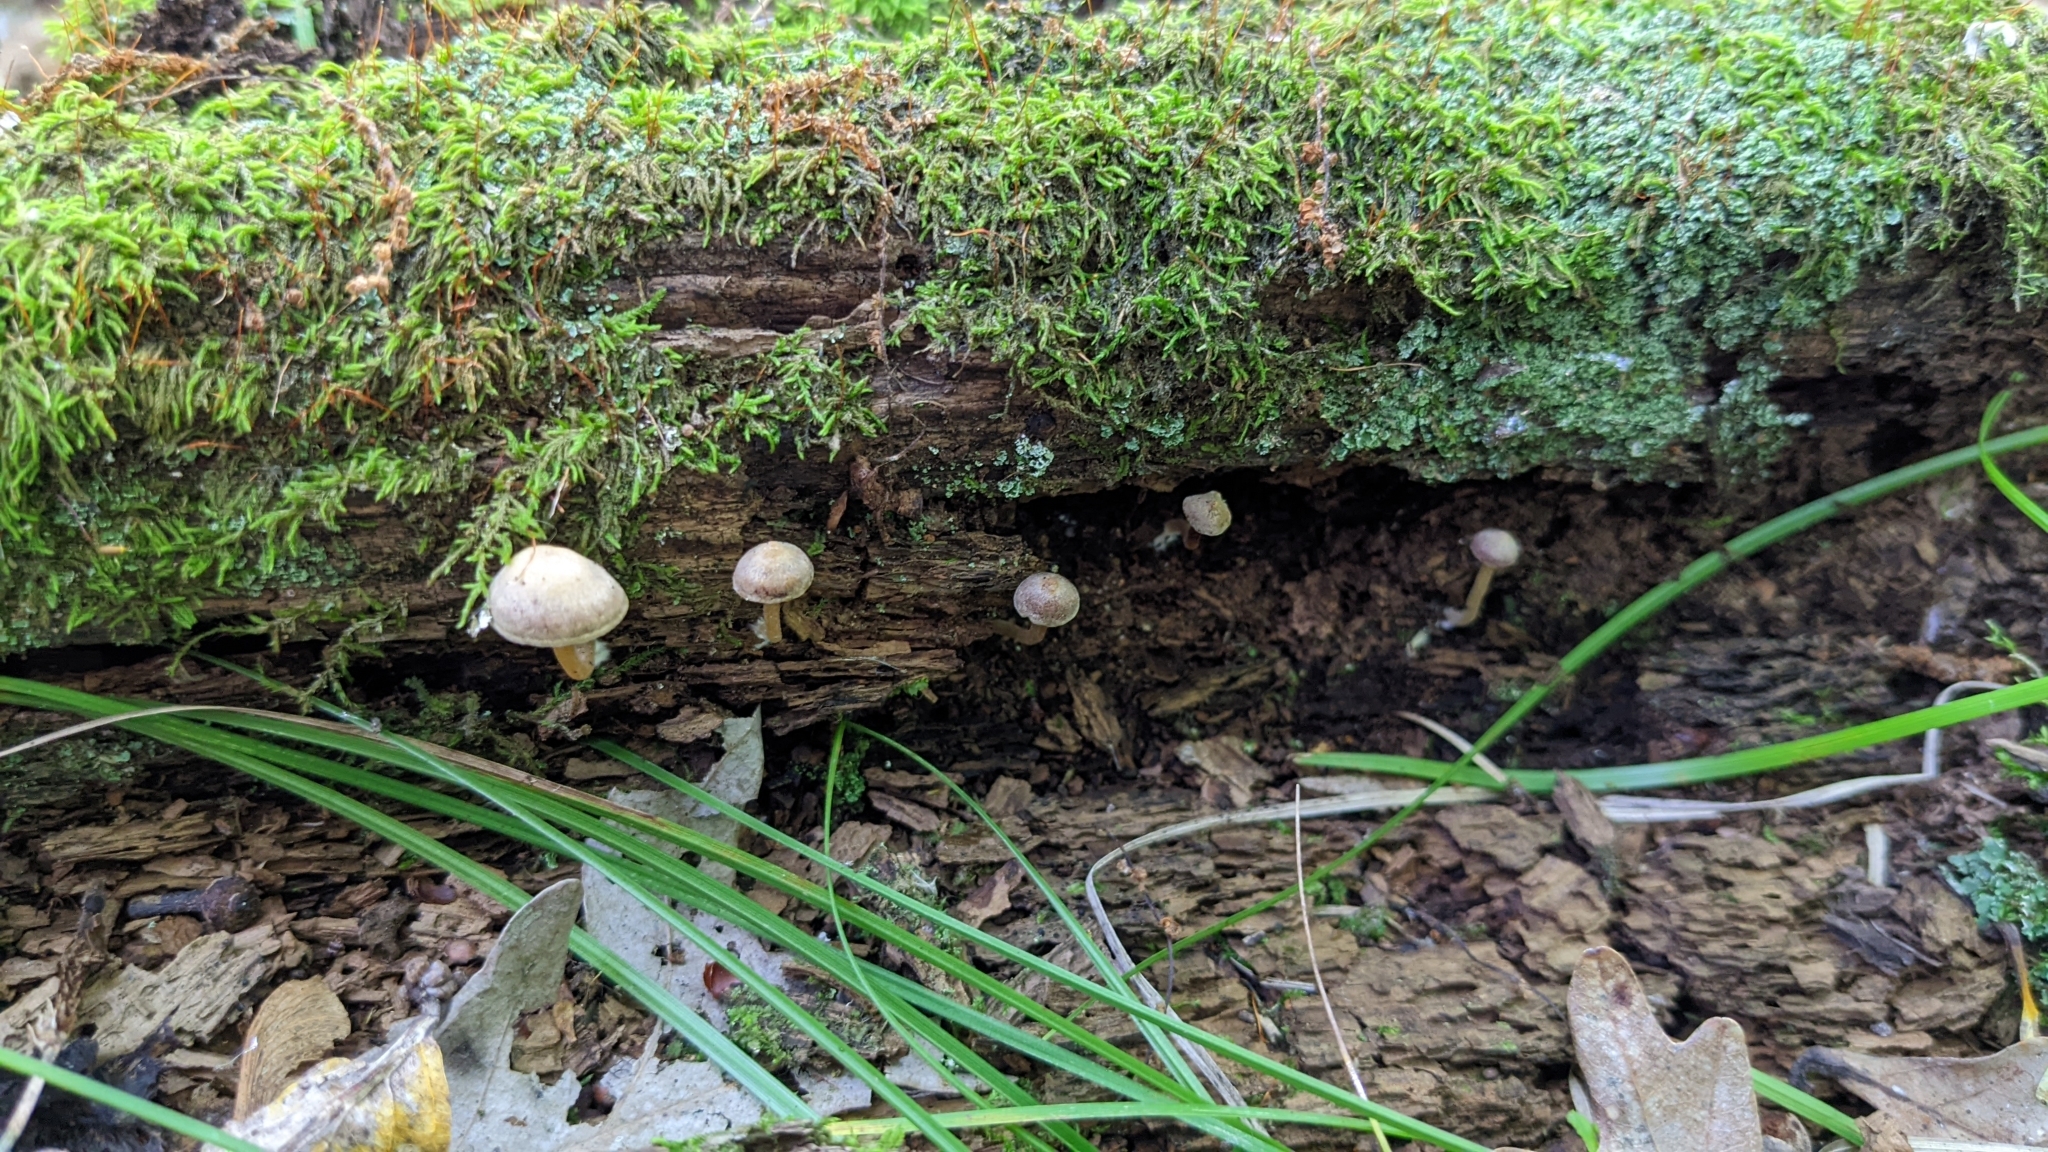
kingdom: Fungi
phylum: Basidiomycota
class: Agaricomycetes
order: Agaricales
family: Callistosporiaceae
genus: Callistosporium
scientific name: Callistosporium pseudofelleum
